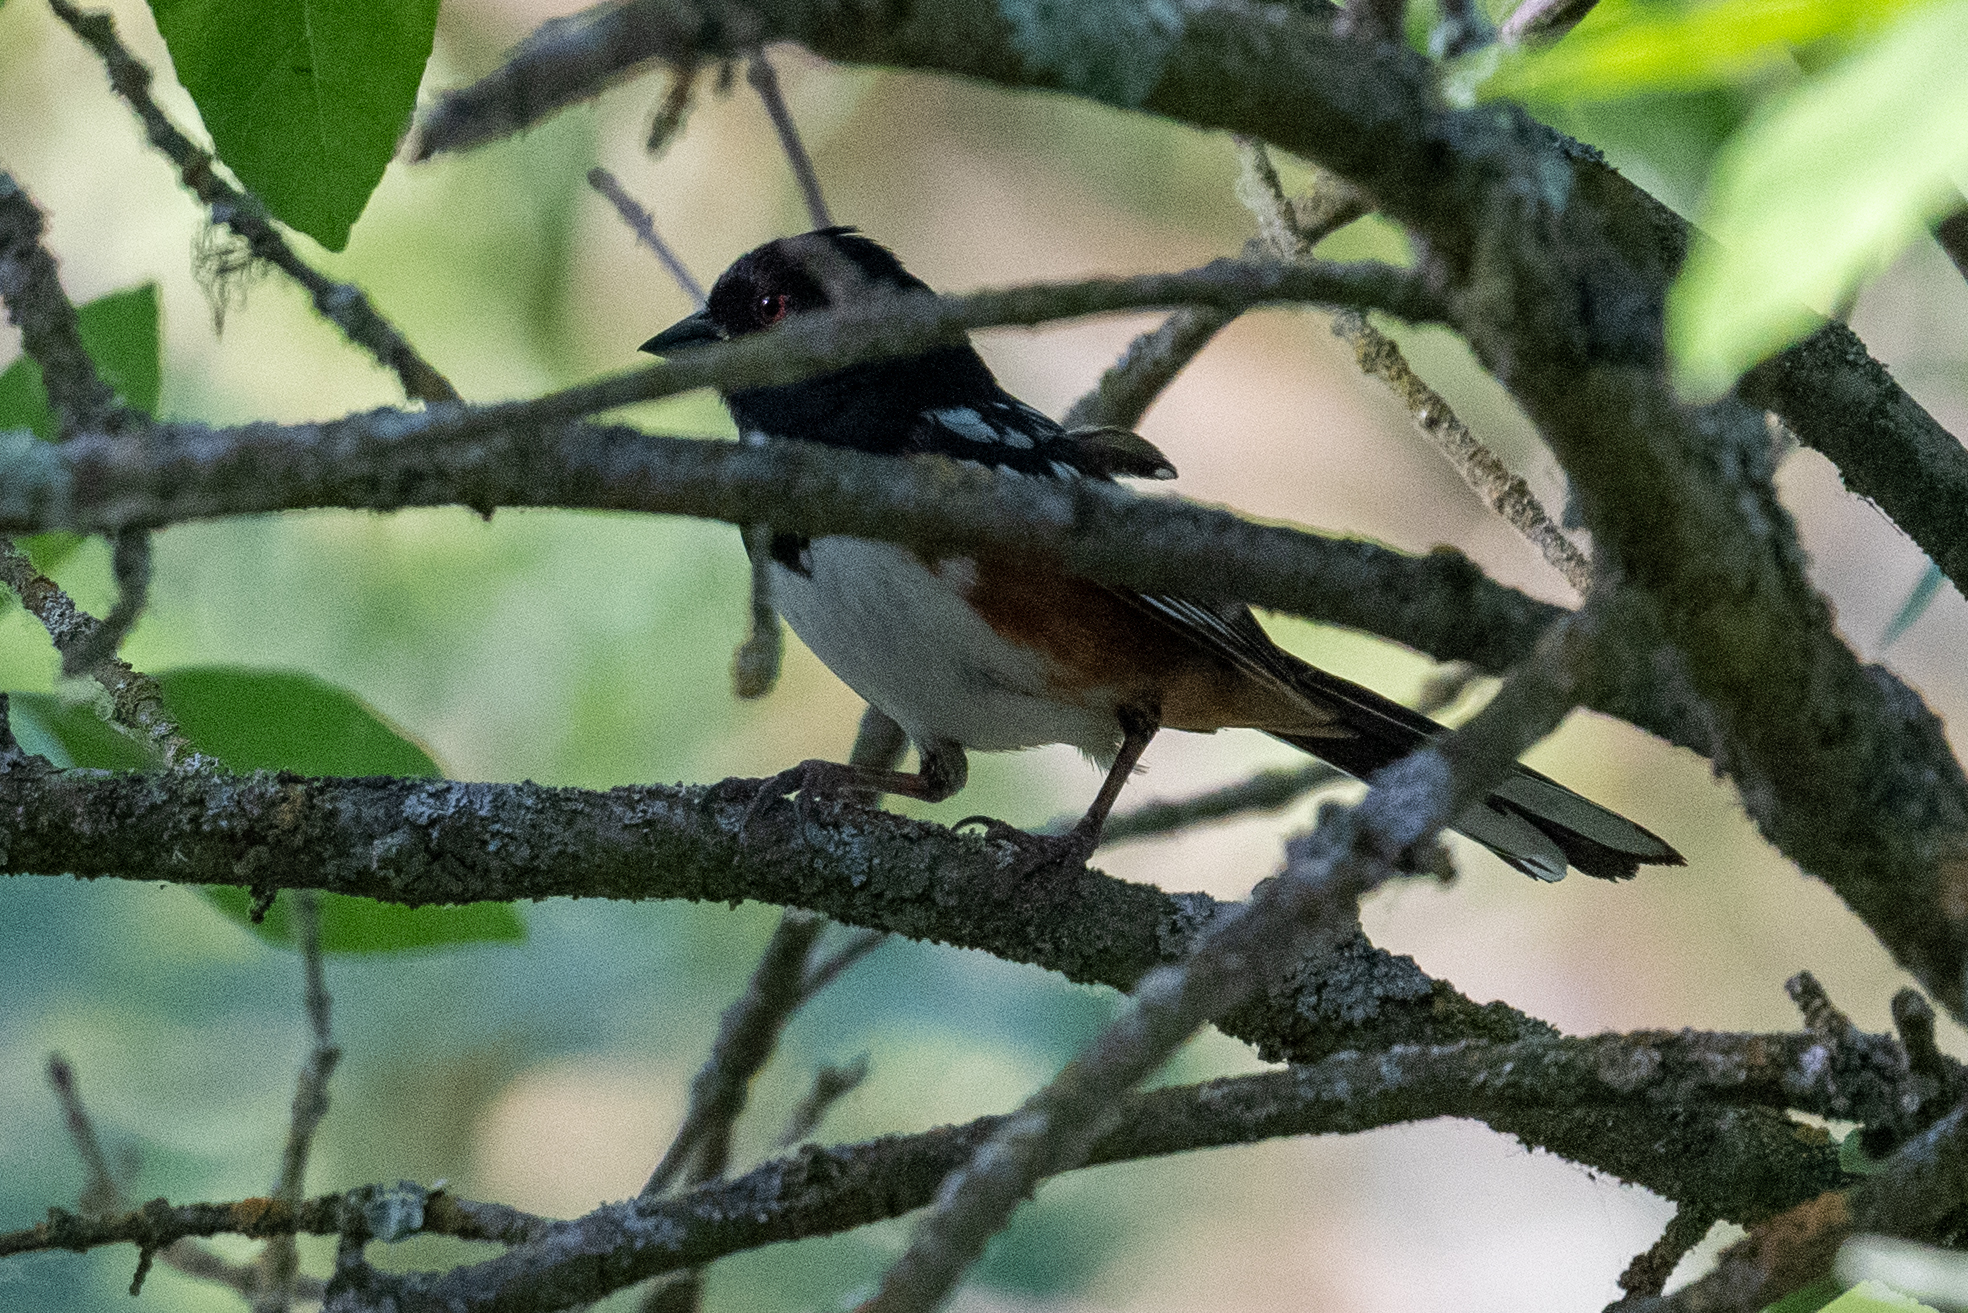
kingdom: Animalia
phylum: Chordata
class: Aves
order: Passeriformes
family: Passerellidae
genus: Pipilo
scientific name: Pipilo maculatus
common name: Spotted towhee
